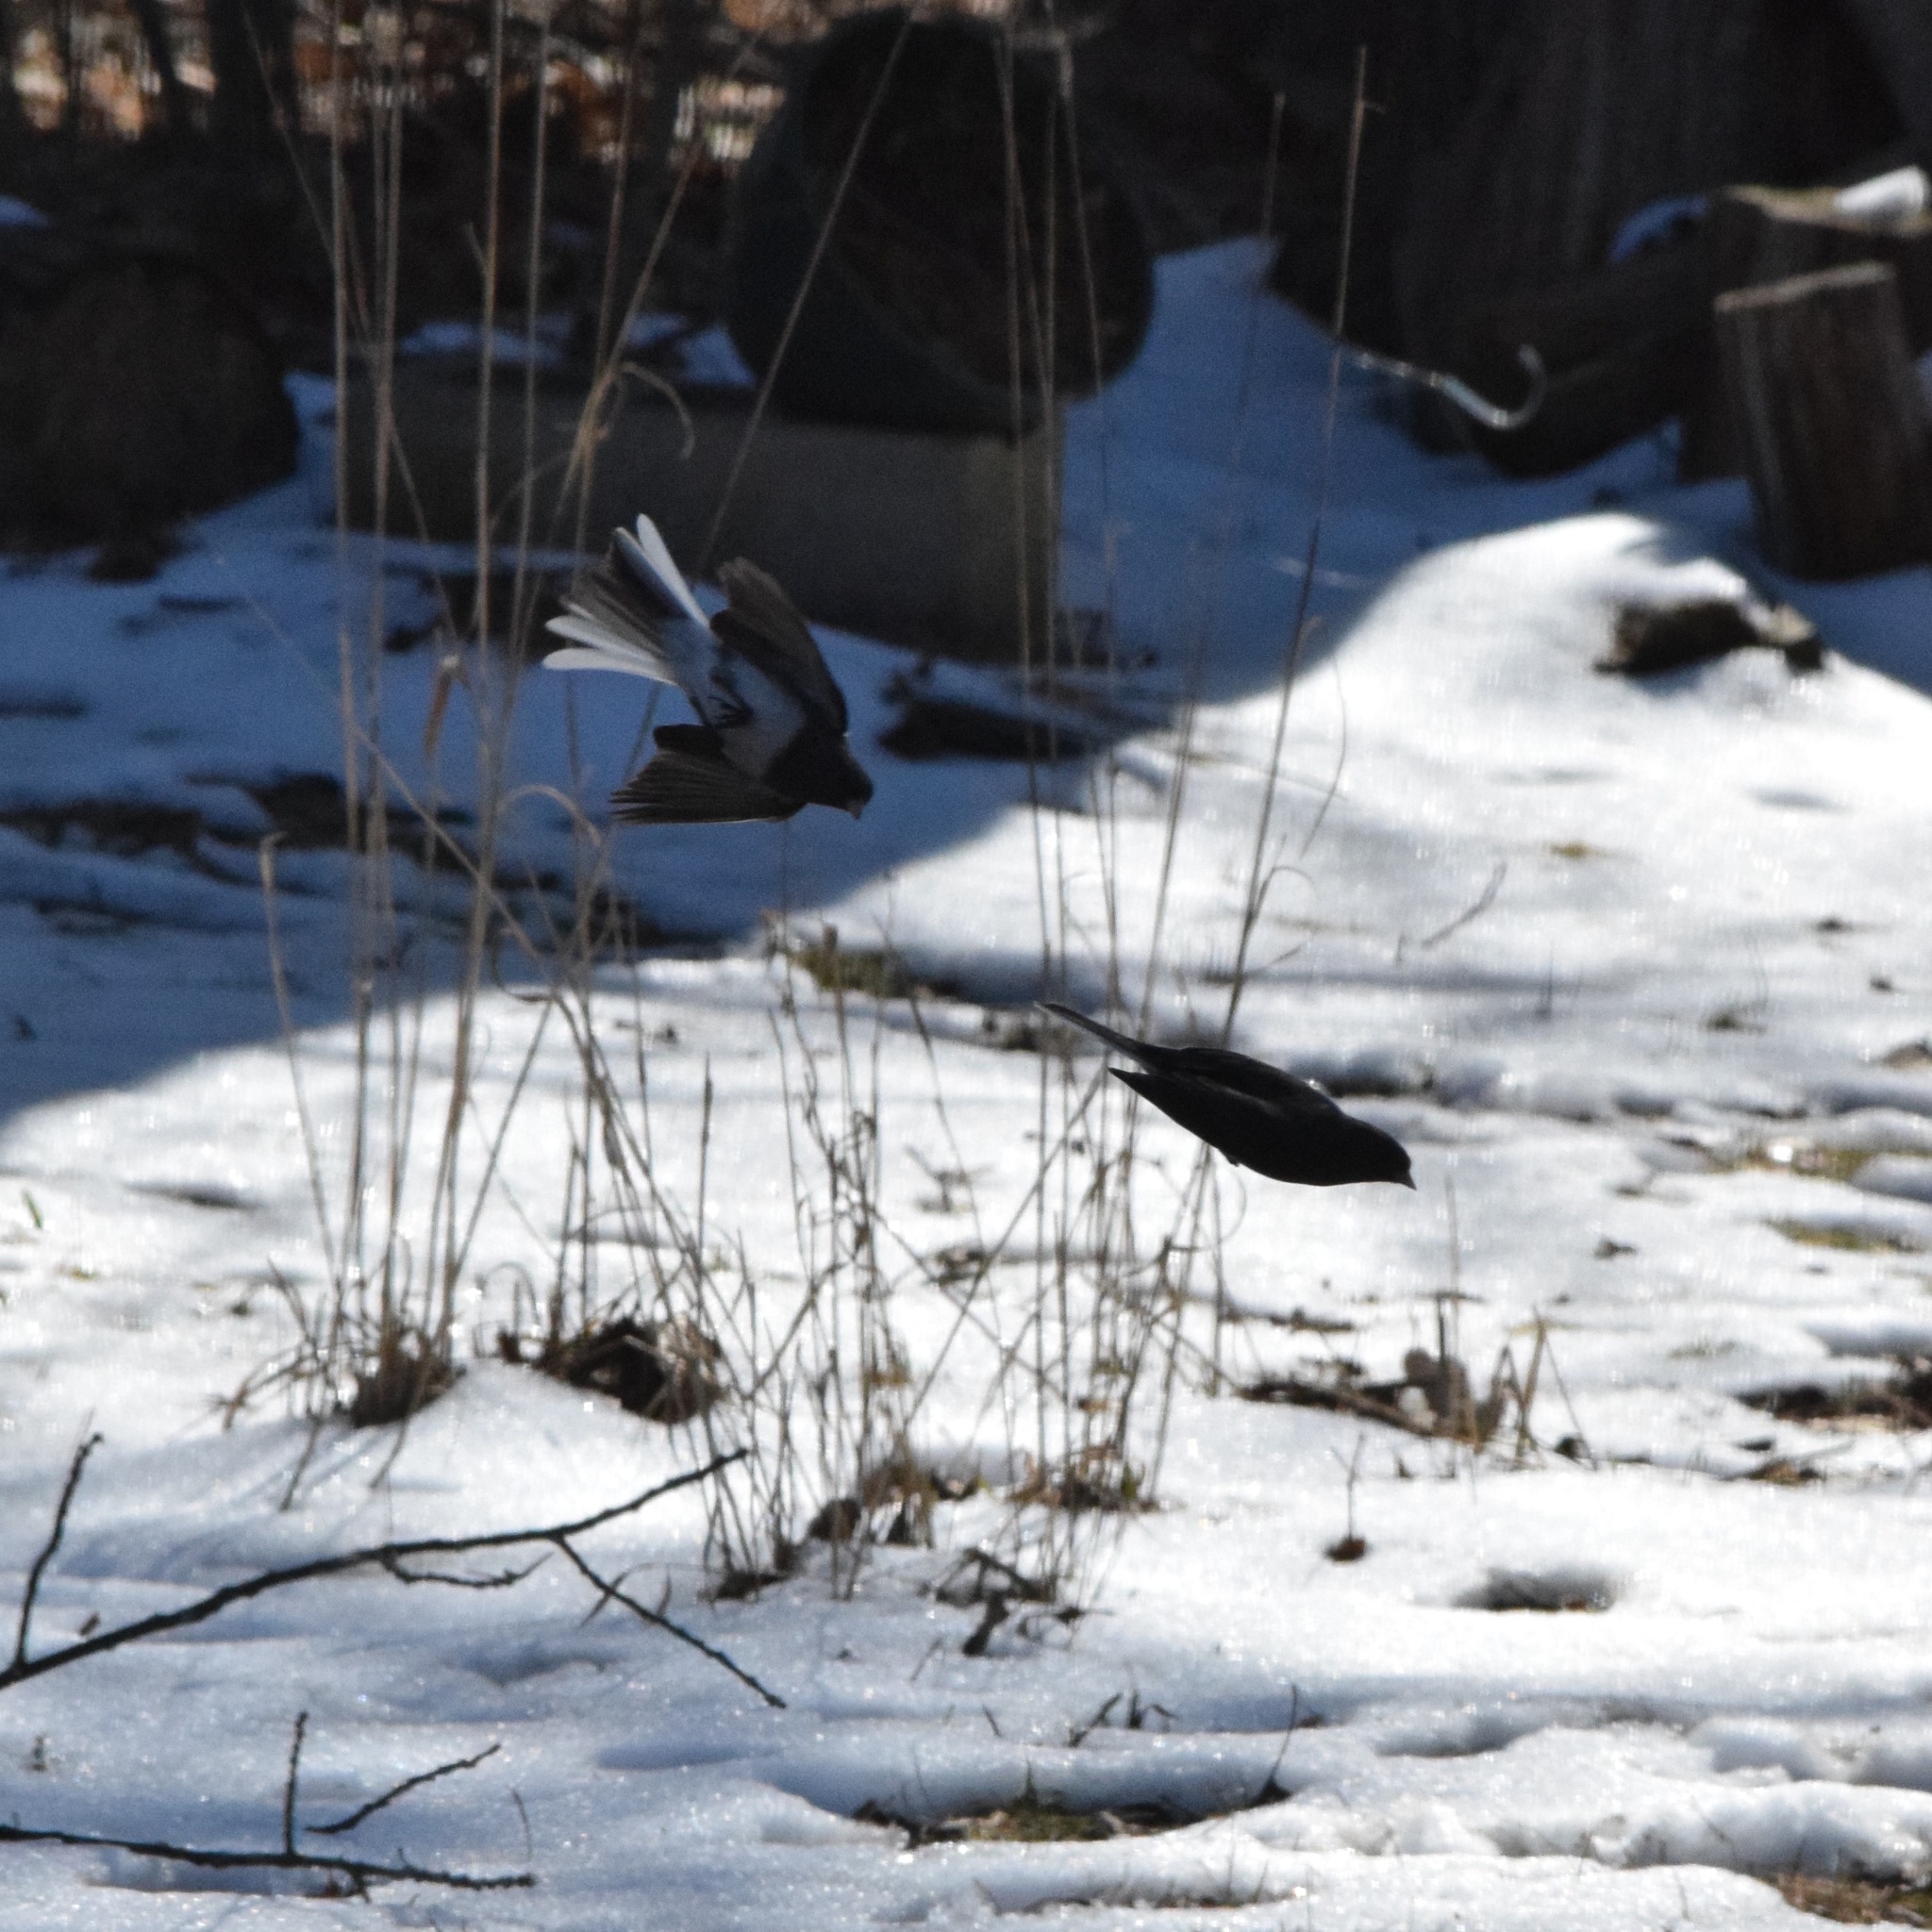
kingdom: Animalia
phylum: Chordata
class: Aves
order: Passeriformes
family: Passerellidae
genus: Junco
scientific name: Junco hyemalis
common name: Dark-eyed junco
